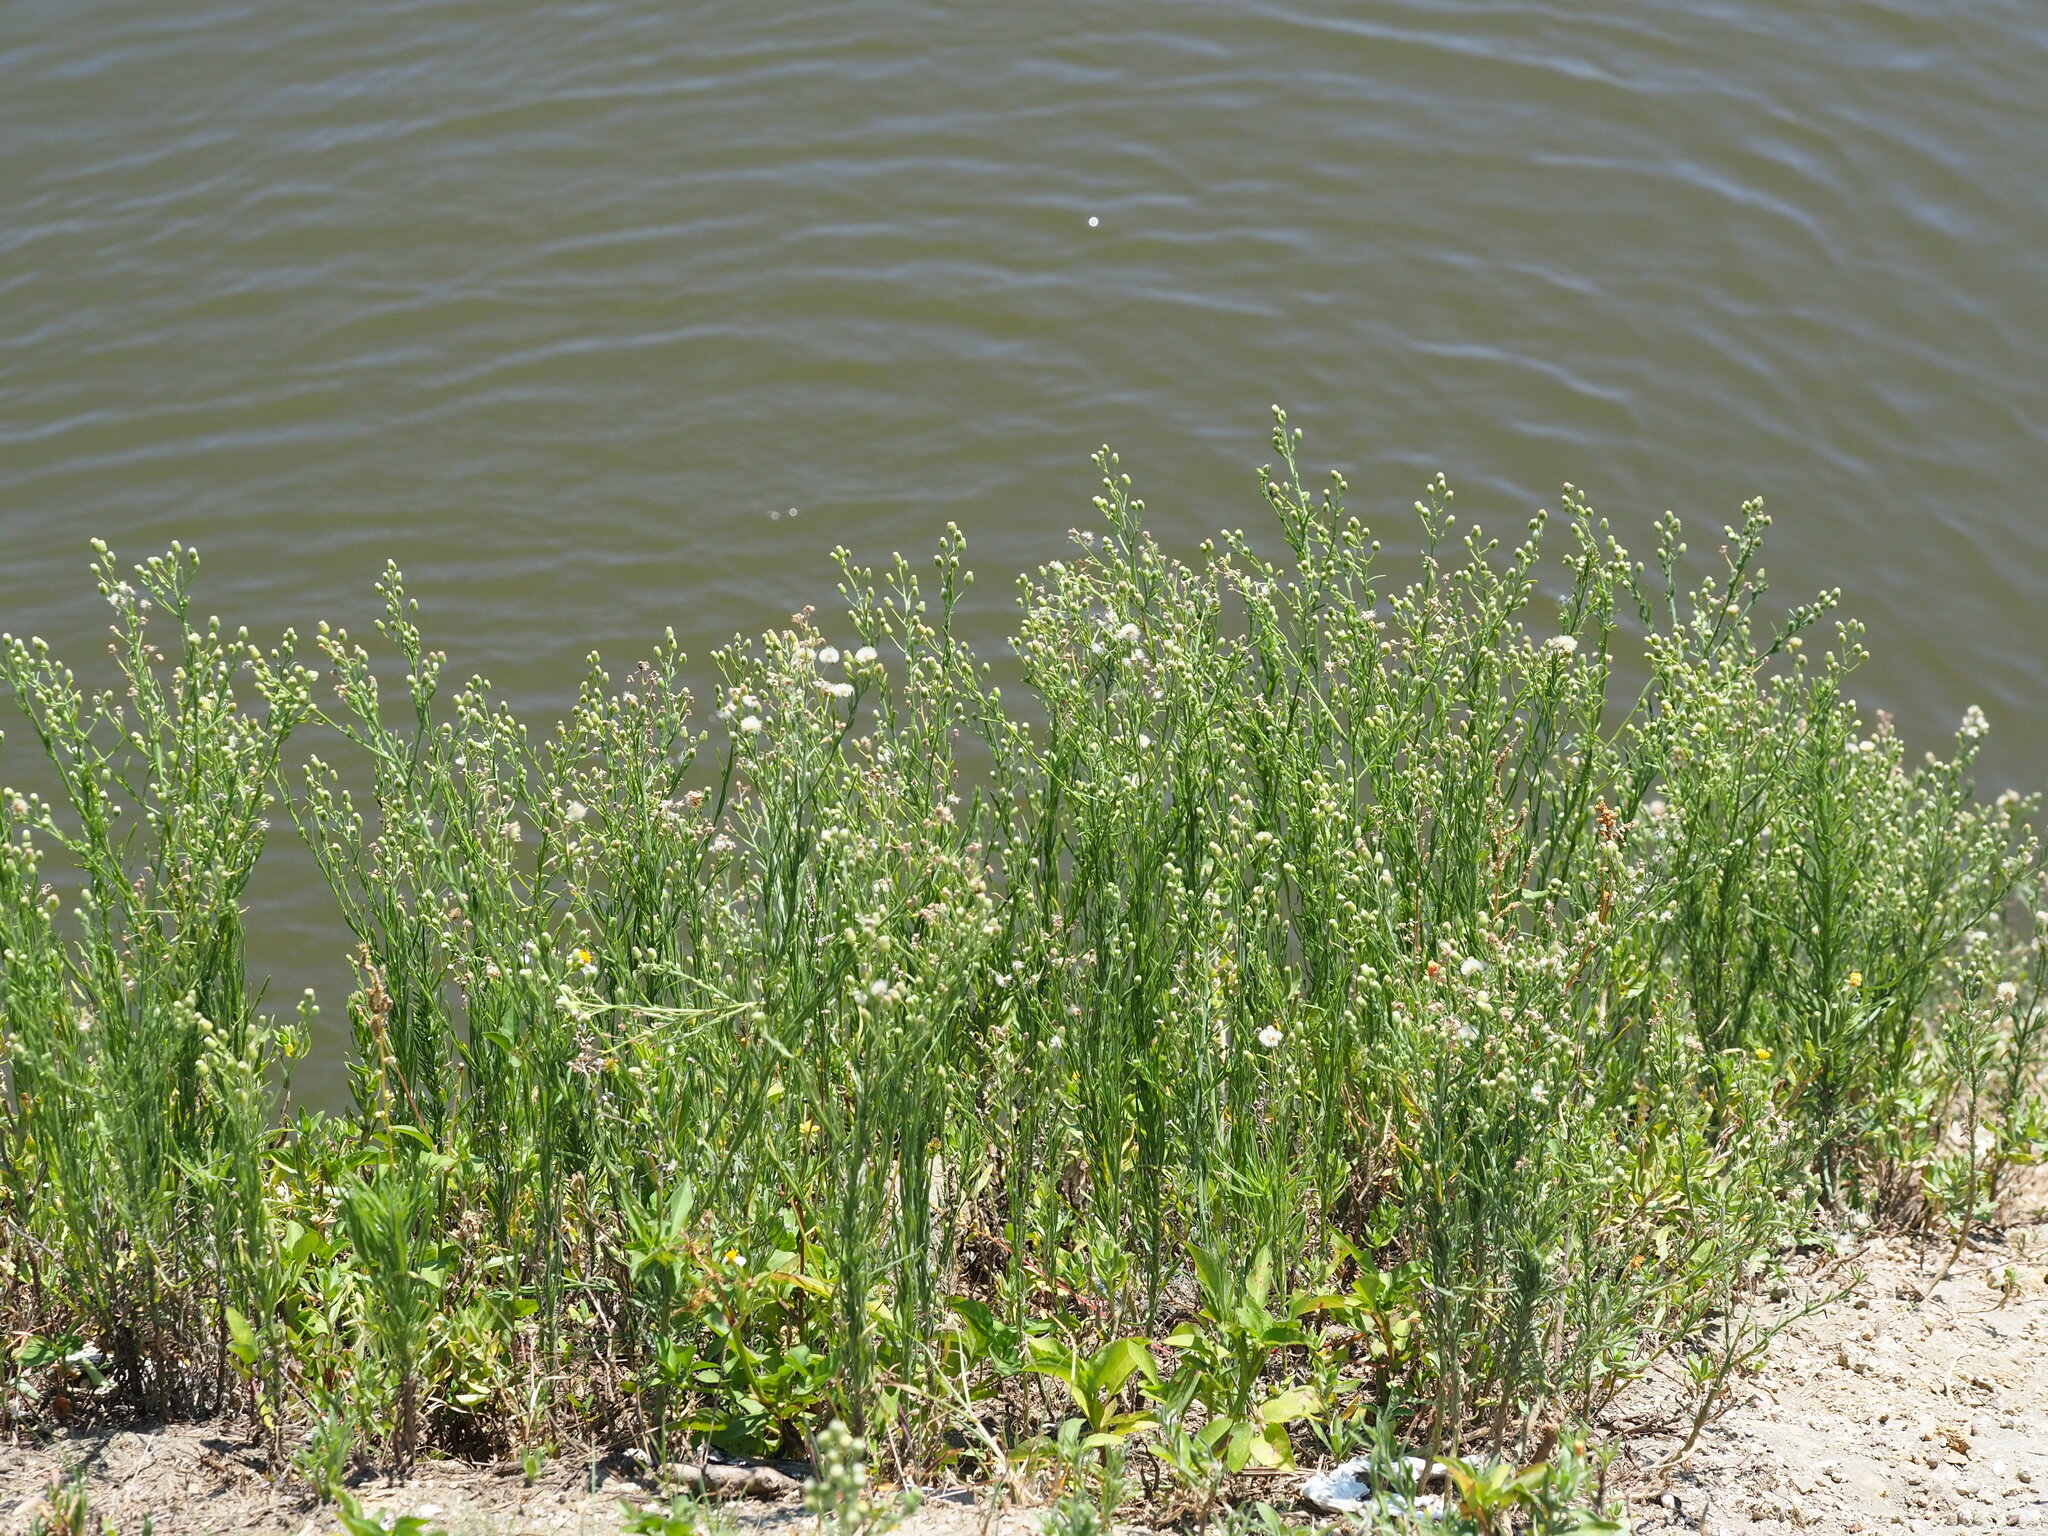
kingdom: Plantae
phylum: Tracheophyta
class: Magnoliopsida
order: Asterales
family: Asteraceae
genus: Erigeron
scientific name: Erigeron bonariensis
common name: Argentine fleabane
